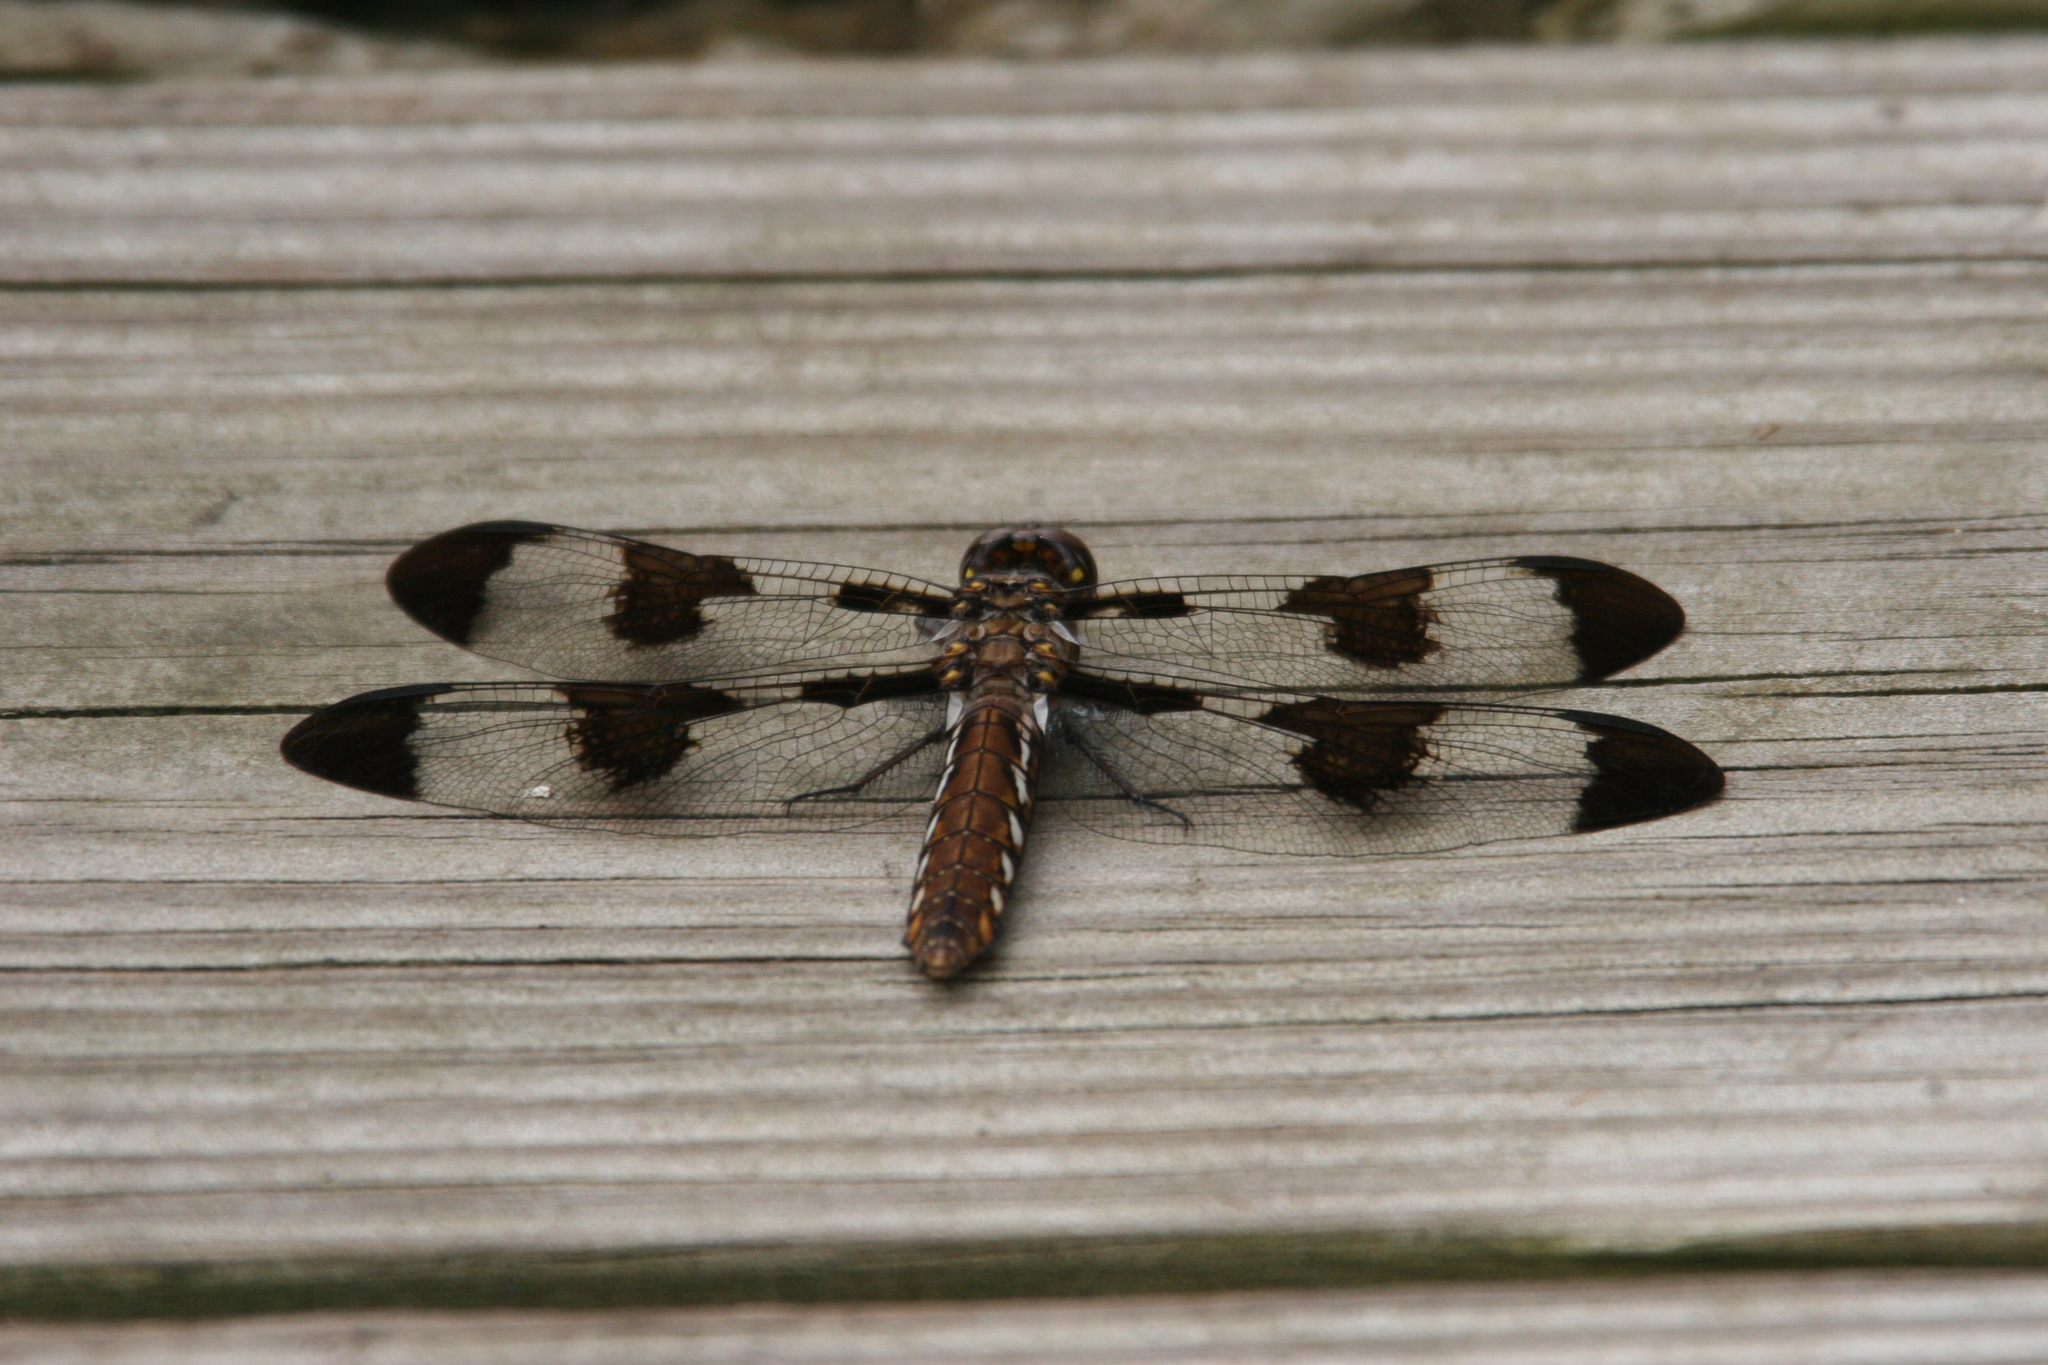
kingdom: Animalia
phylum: Arthropoda
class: Insecta
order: Odonata
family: Libellulidae
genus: Plathemis
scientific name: Plathemis lydia
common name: Common whitetail
